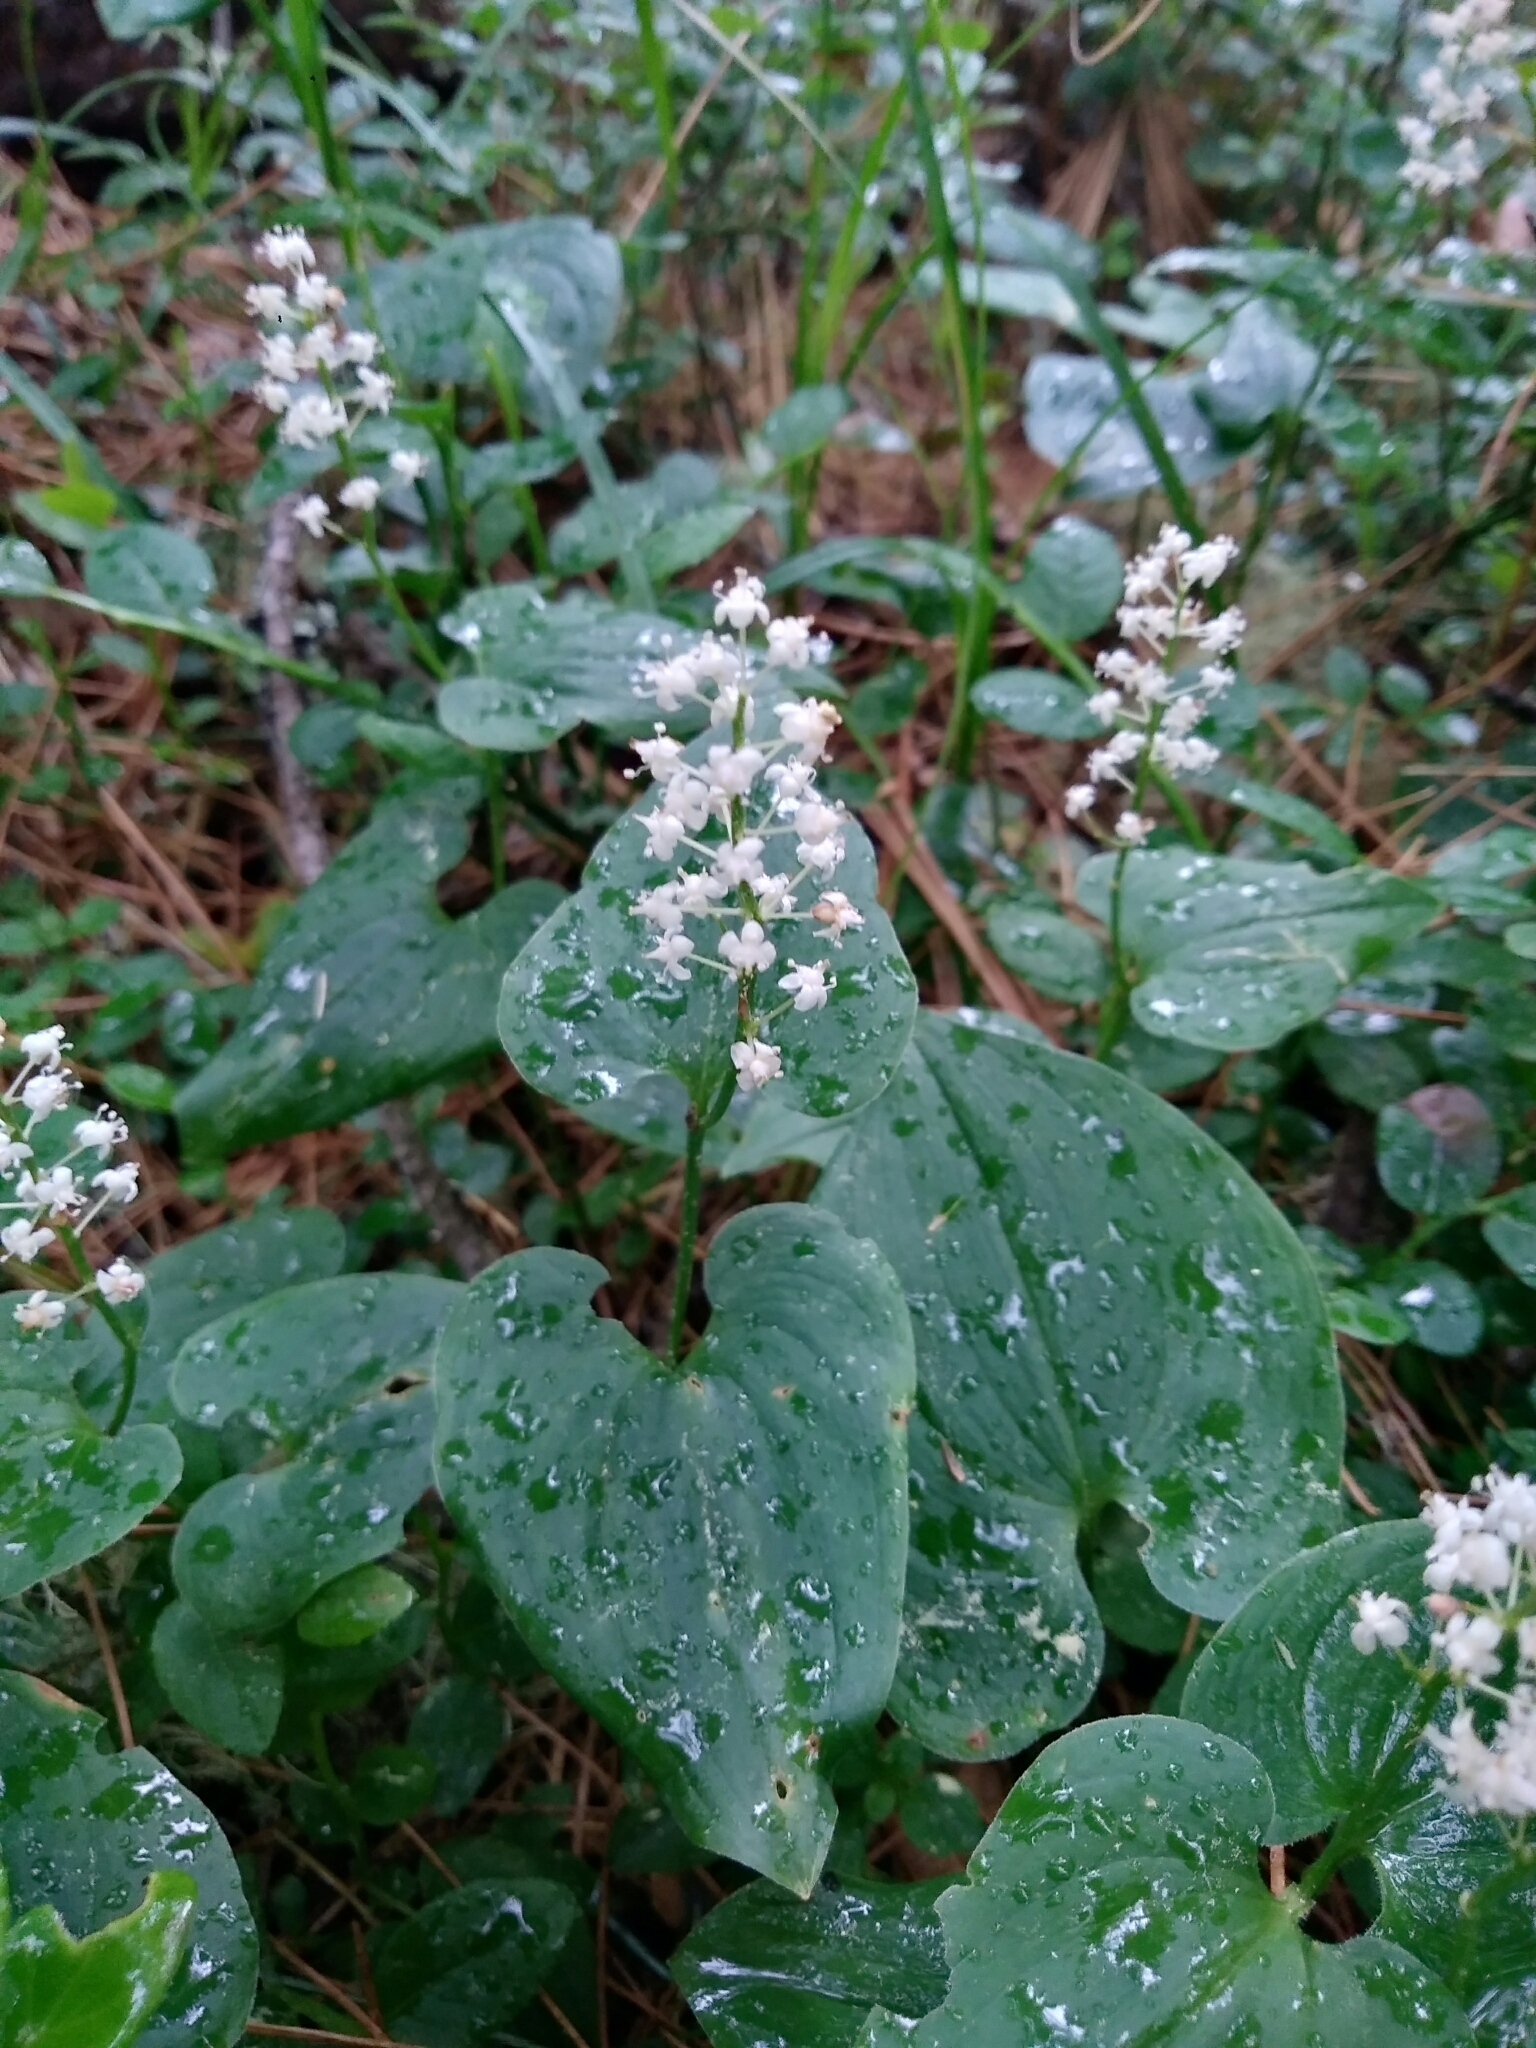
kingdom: Plantae
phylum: Tracheophyta
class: Liliopsida
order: Asparagales
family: Asparagaceae
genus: Maianthemum
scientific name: Maianthemum bifolium
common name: May lily
